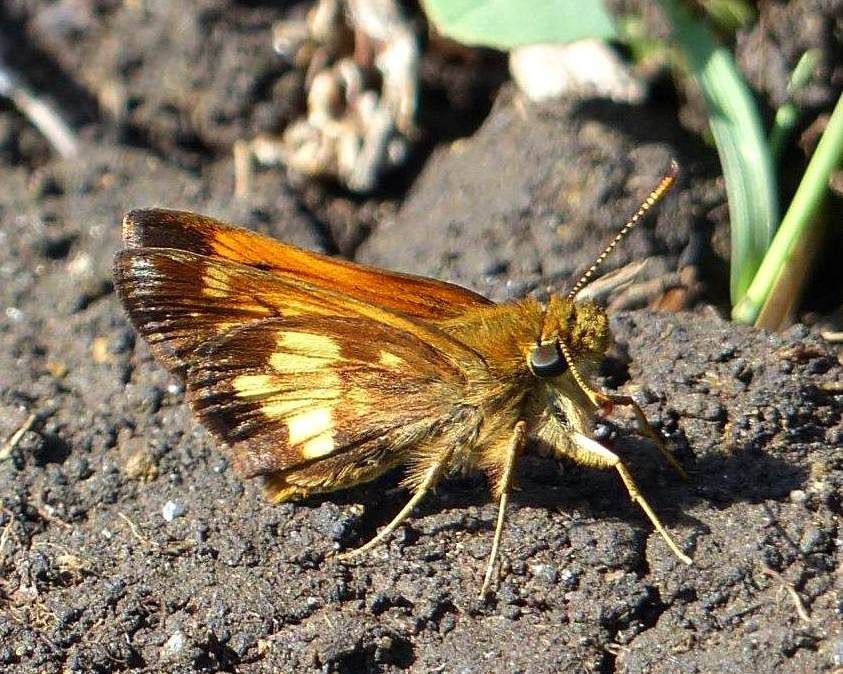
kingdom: Animalia
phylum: Arthropoda
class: Insecta
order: Lepidoptera
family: Hesperiidae
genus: Lon
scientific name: Lon hobomok
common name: Hobomok skipper
